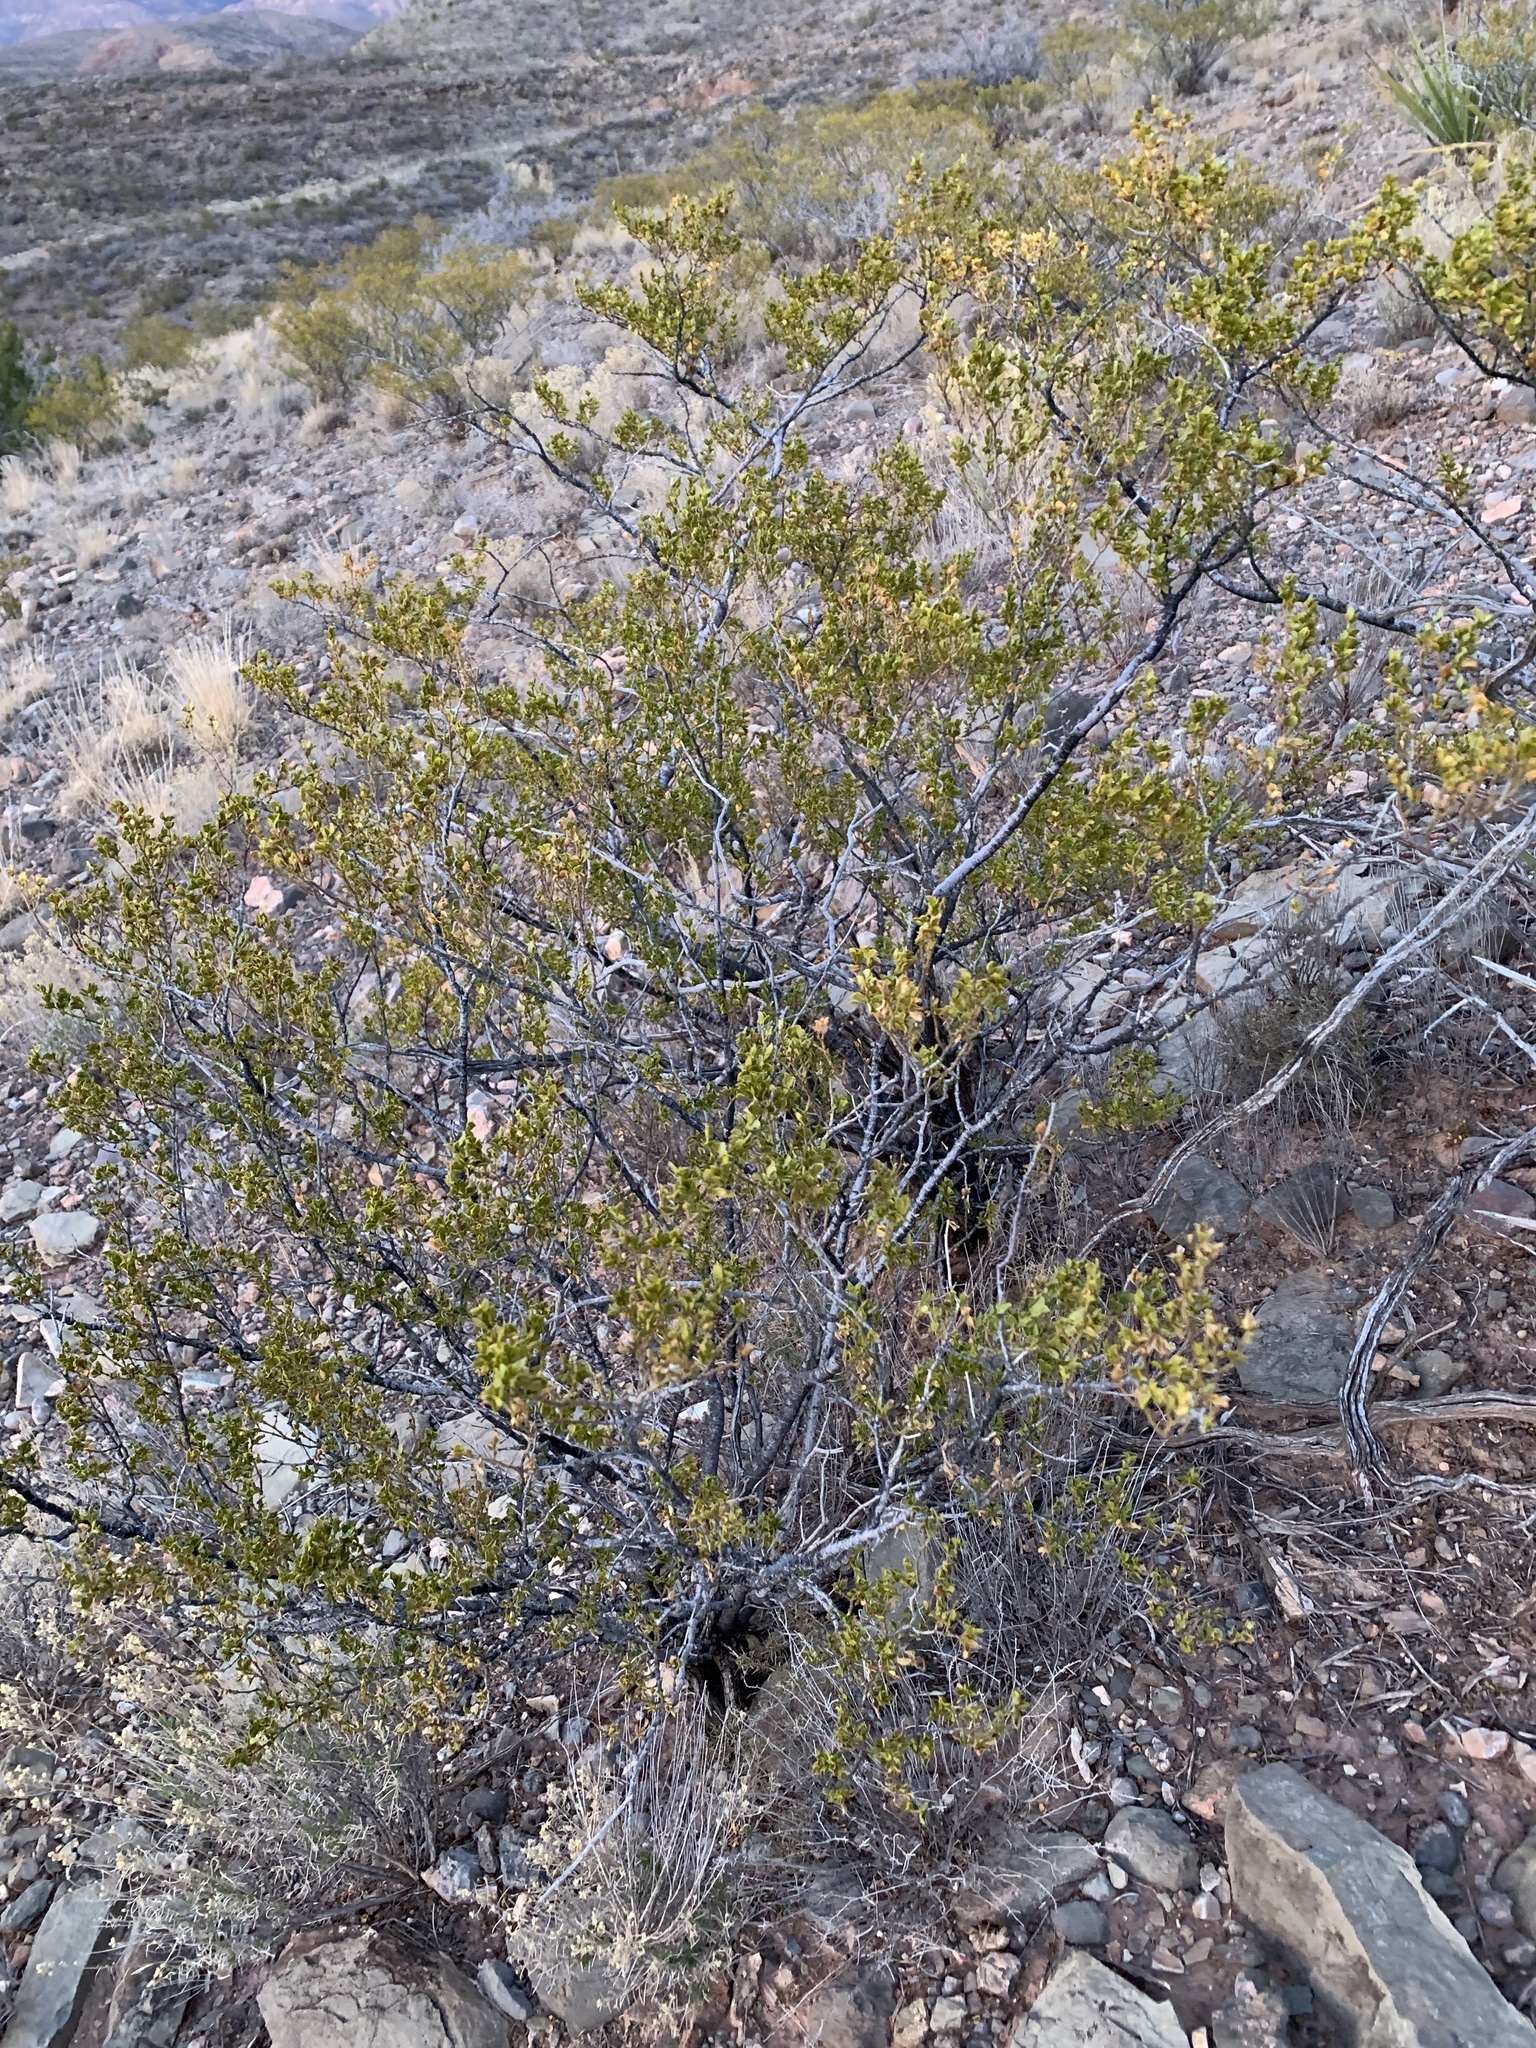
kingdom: Plantae
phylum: Tracheophyta
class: Magnoliopsida
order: Zygophyllales
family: Zygophyllaceae
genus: Larrea
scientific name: Larrea tridentata
